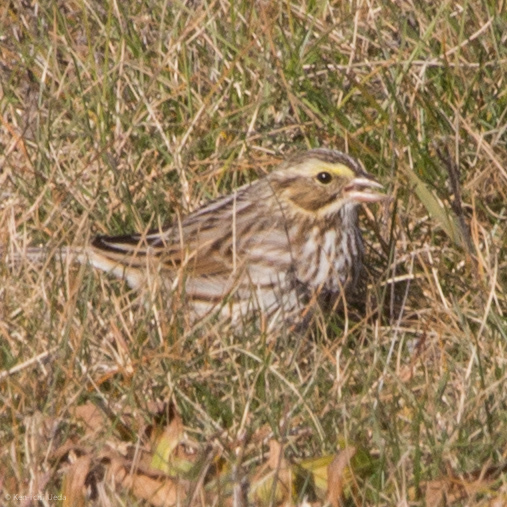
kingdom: Animalia
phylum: Chordata
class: Aves
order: Passeriformes
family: Passerellidae
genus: Passerculus
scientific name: Passerculus sandwichensis
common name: Savannah sparrow
